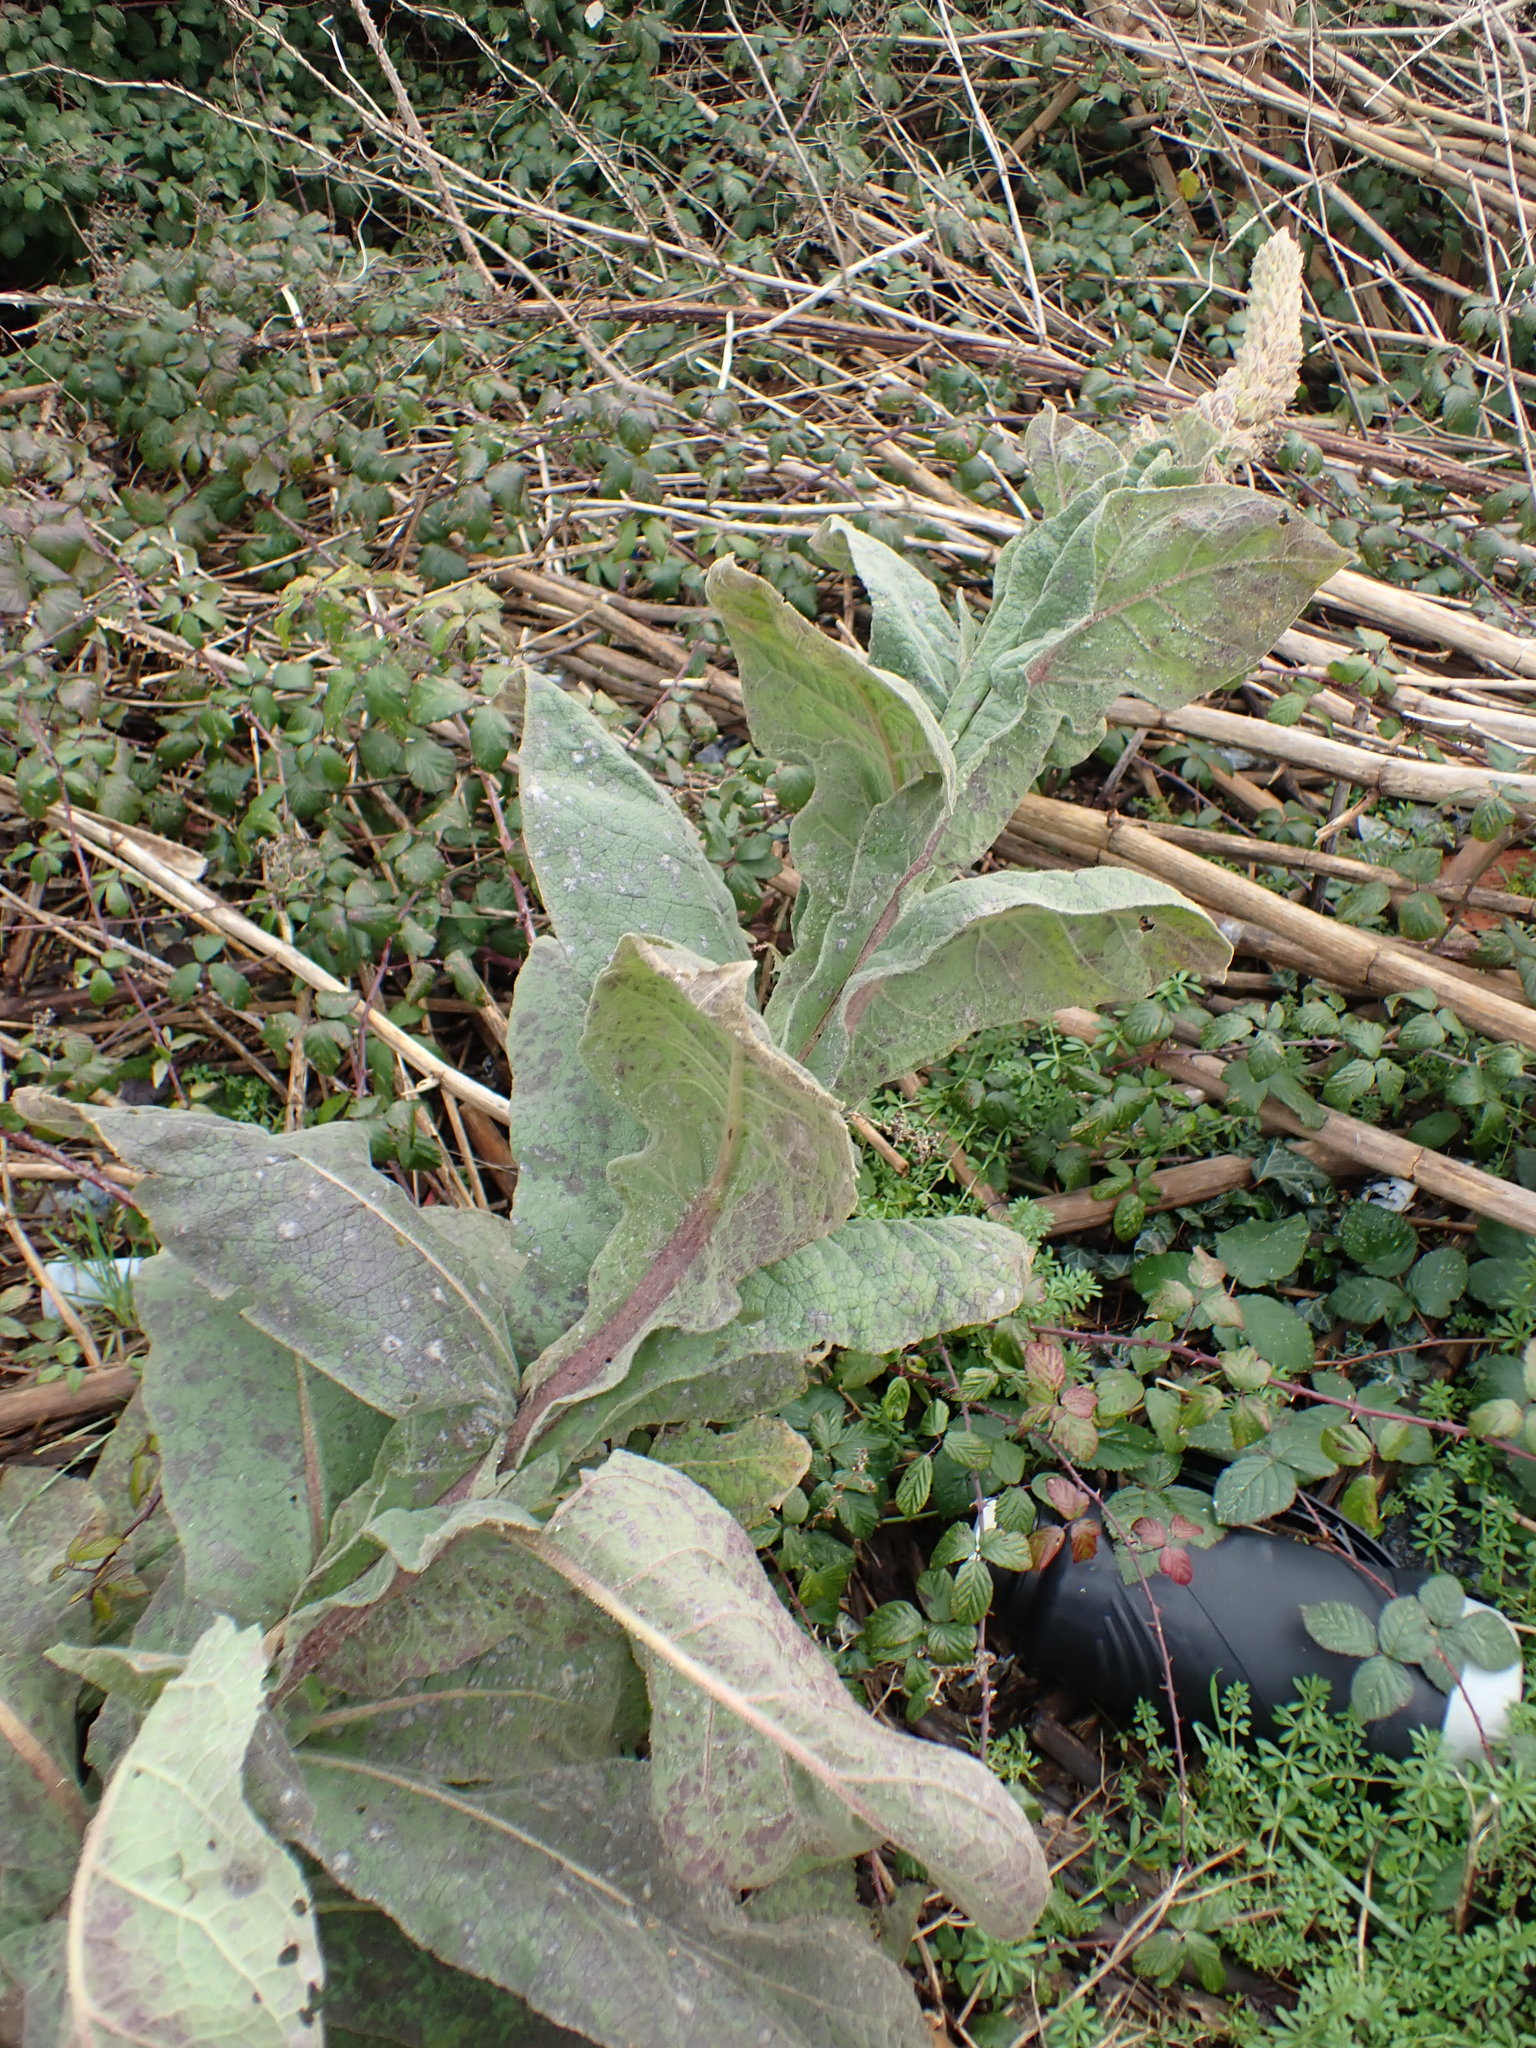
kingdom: Plantae
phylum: Tracheophyta
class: Magnoliopsida
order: Lamiales
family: Scrophulariaceae
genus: Verbascum
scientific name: Verbascum thapsus
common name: Common mullein
